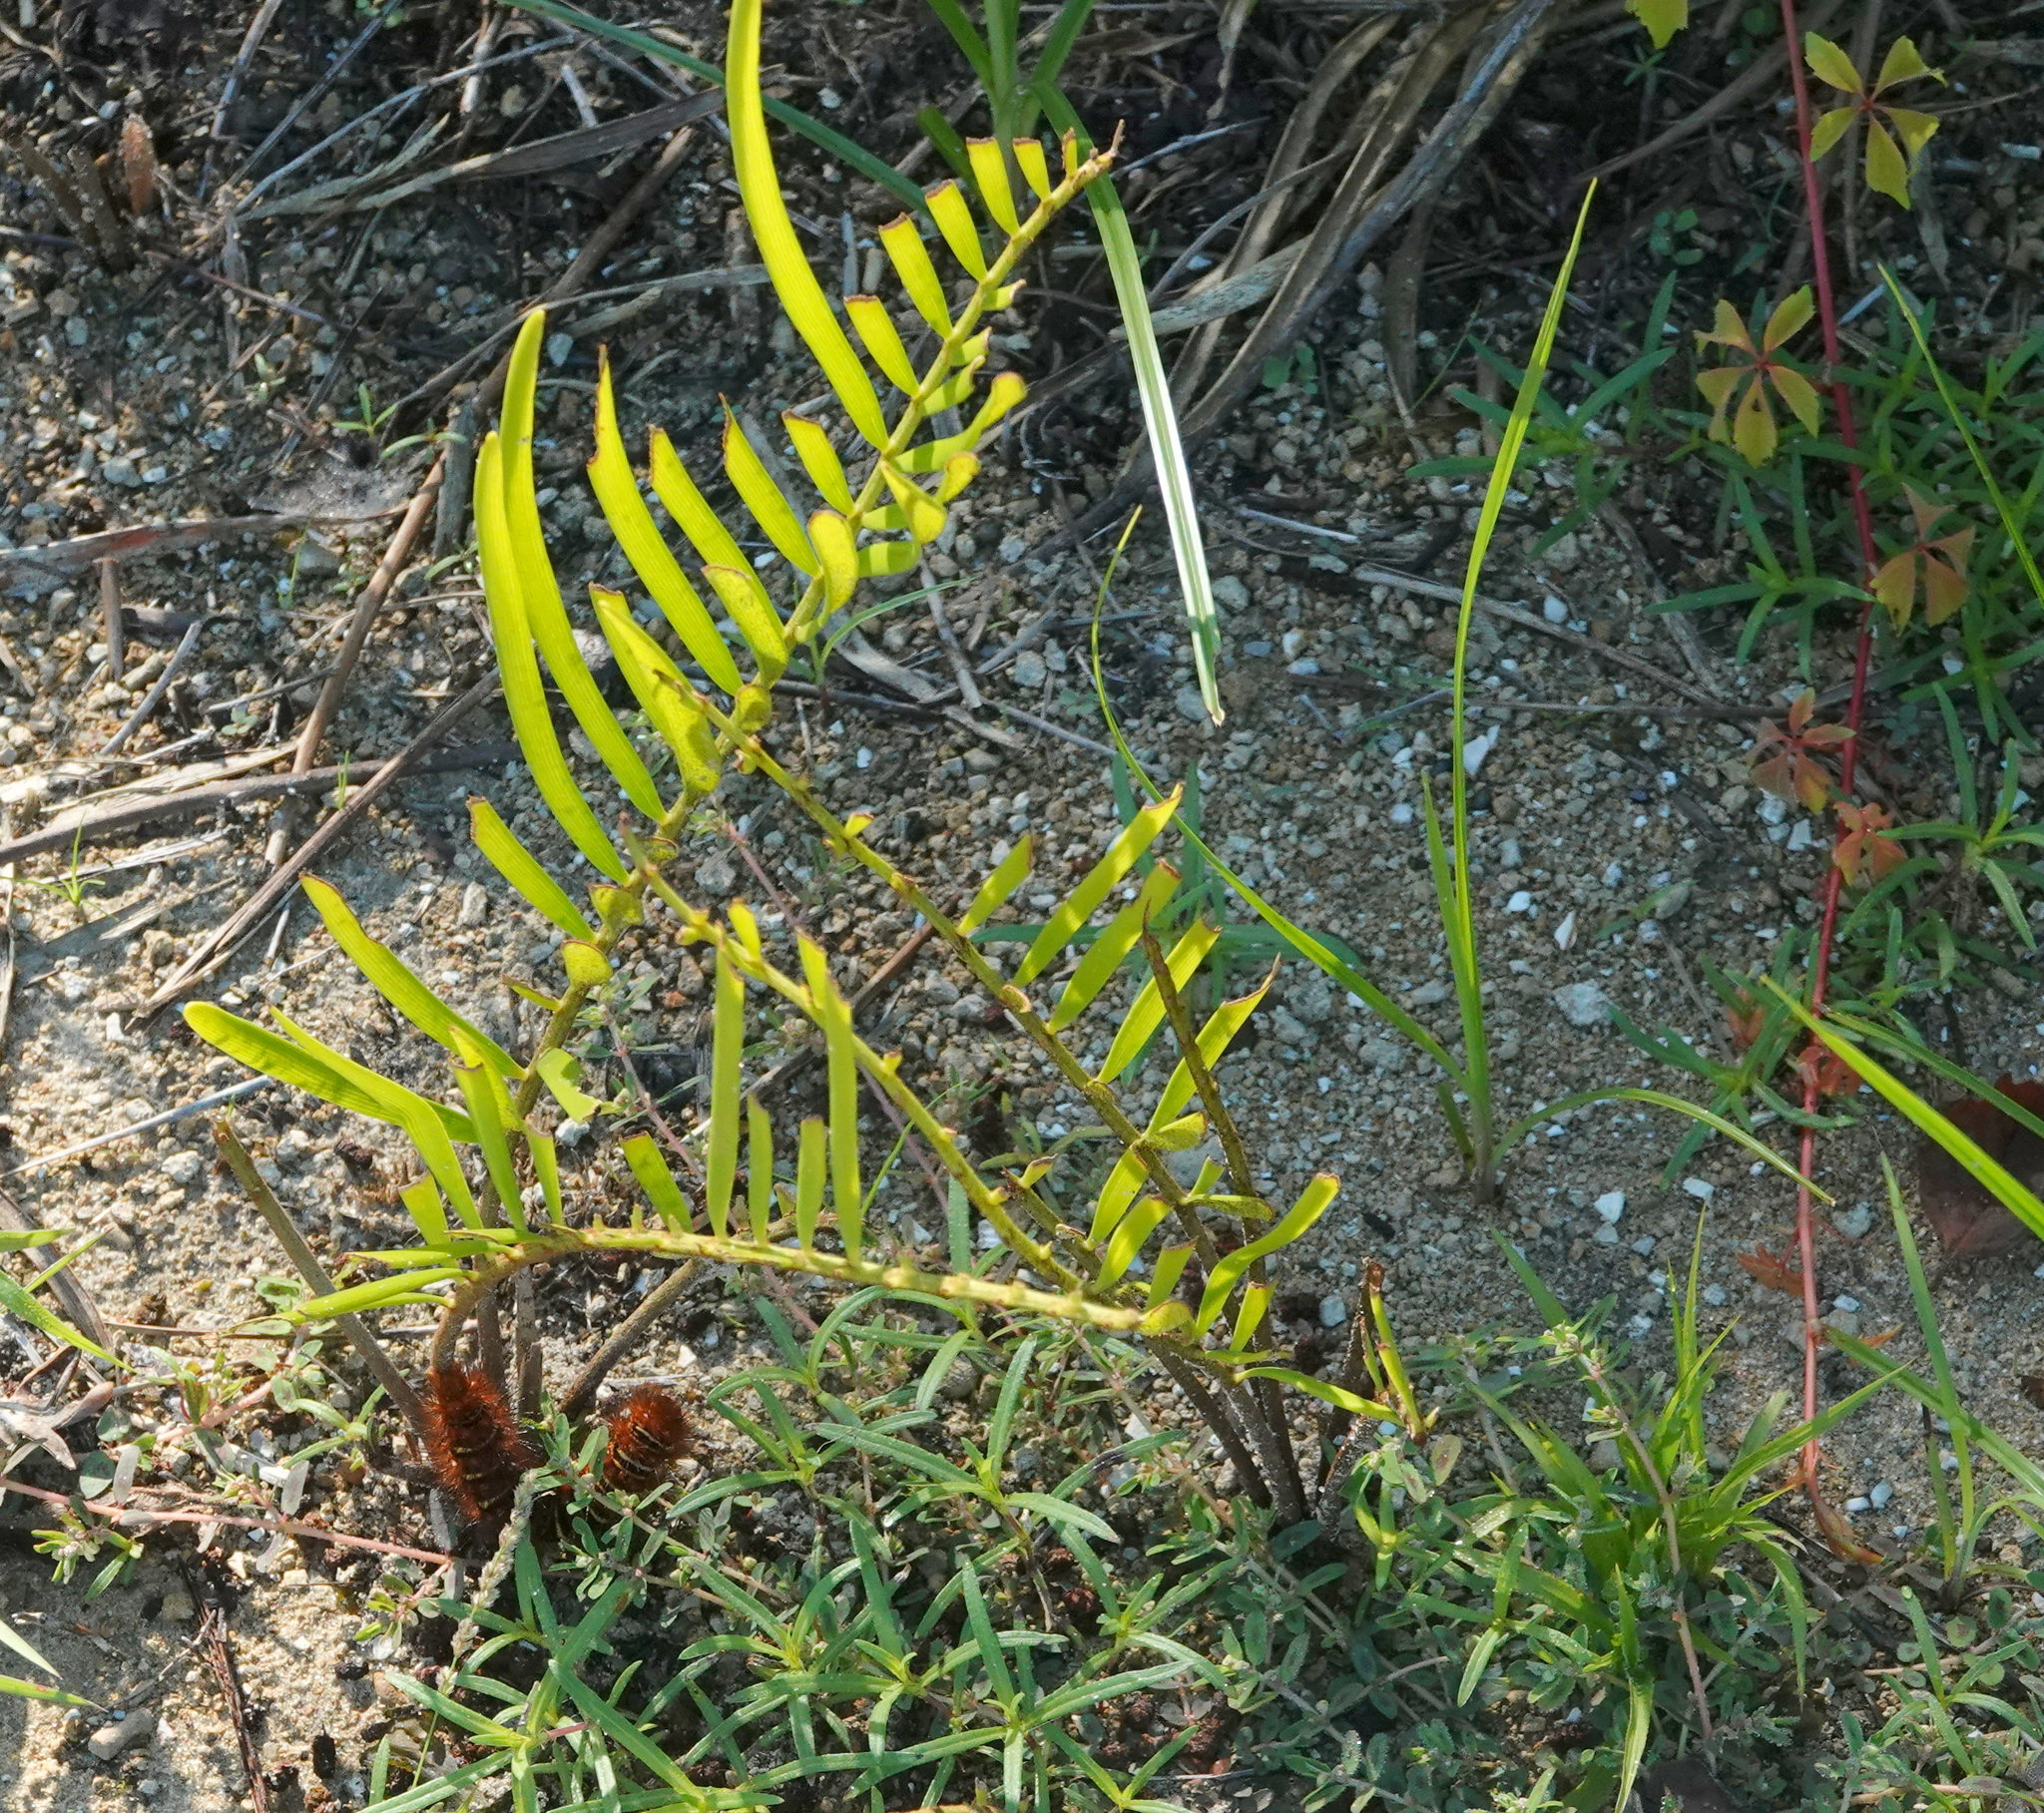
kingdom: Plantae
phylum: Tracheophyta
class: Cycadopsida
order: Cycadales
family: Zamiaceae
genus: Zamia
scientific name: Zamia integrifolia
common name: Florida arrowroot
